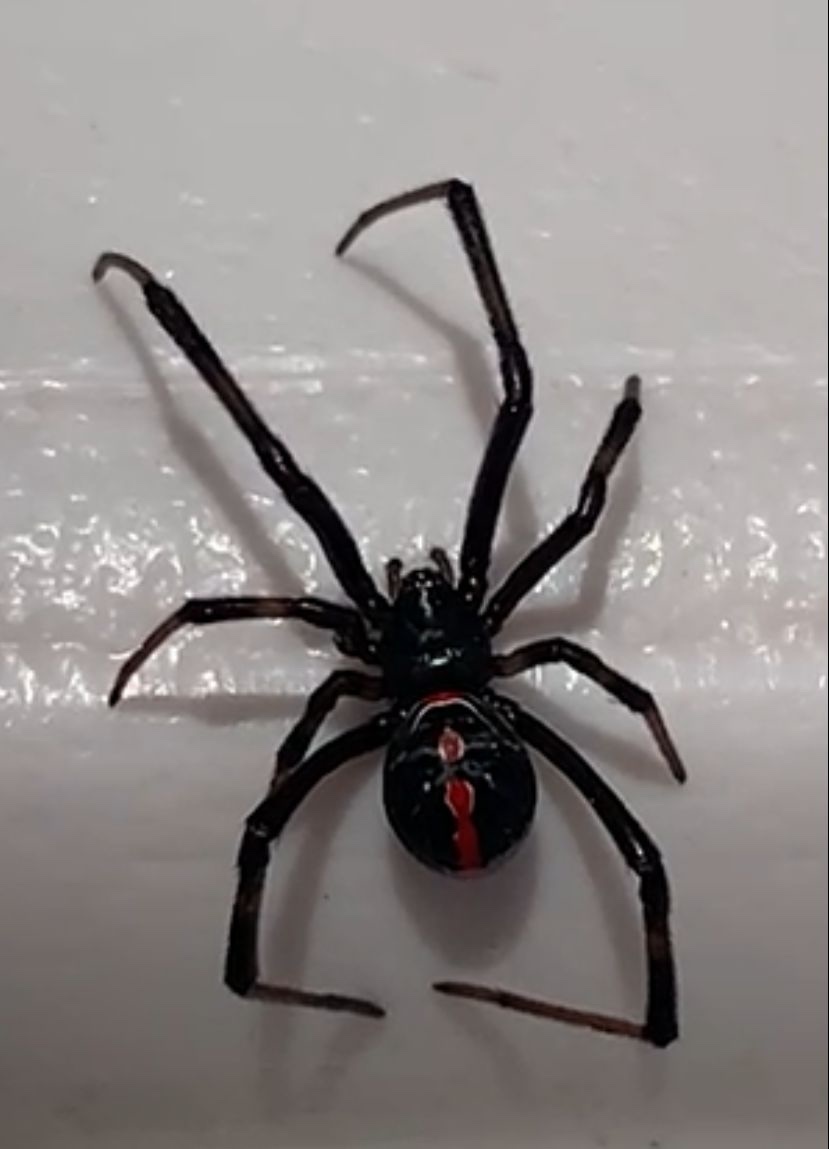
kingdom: Animalia
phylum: Arthropoda
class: Arachnida
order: Araneae
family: Theridiidae
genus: Latrodectus
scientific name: Latrodectus mactans
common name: Cobweb spiders
